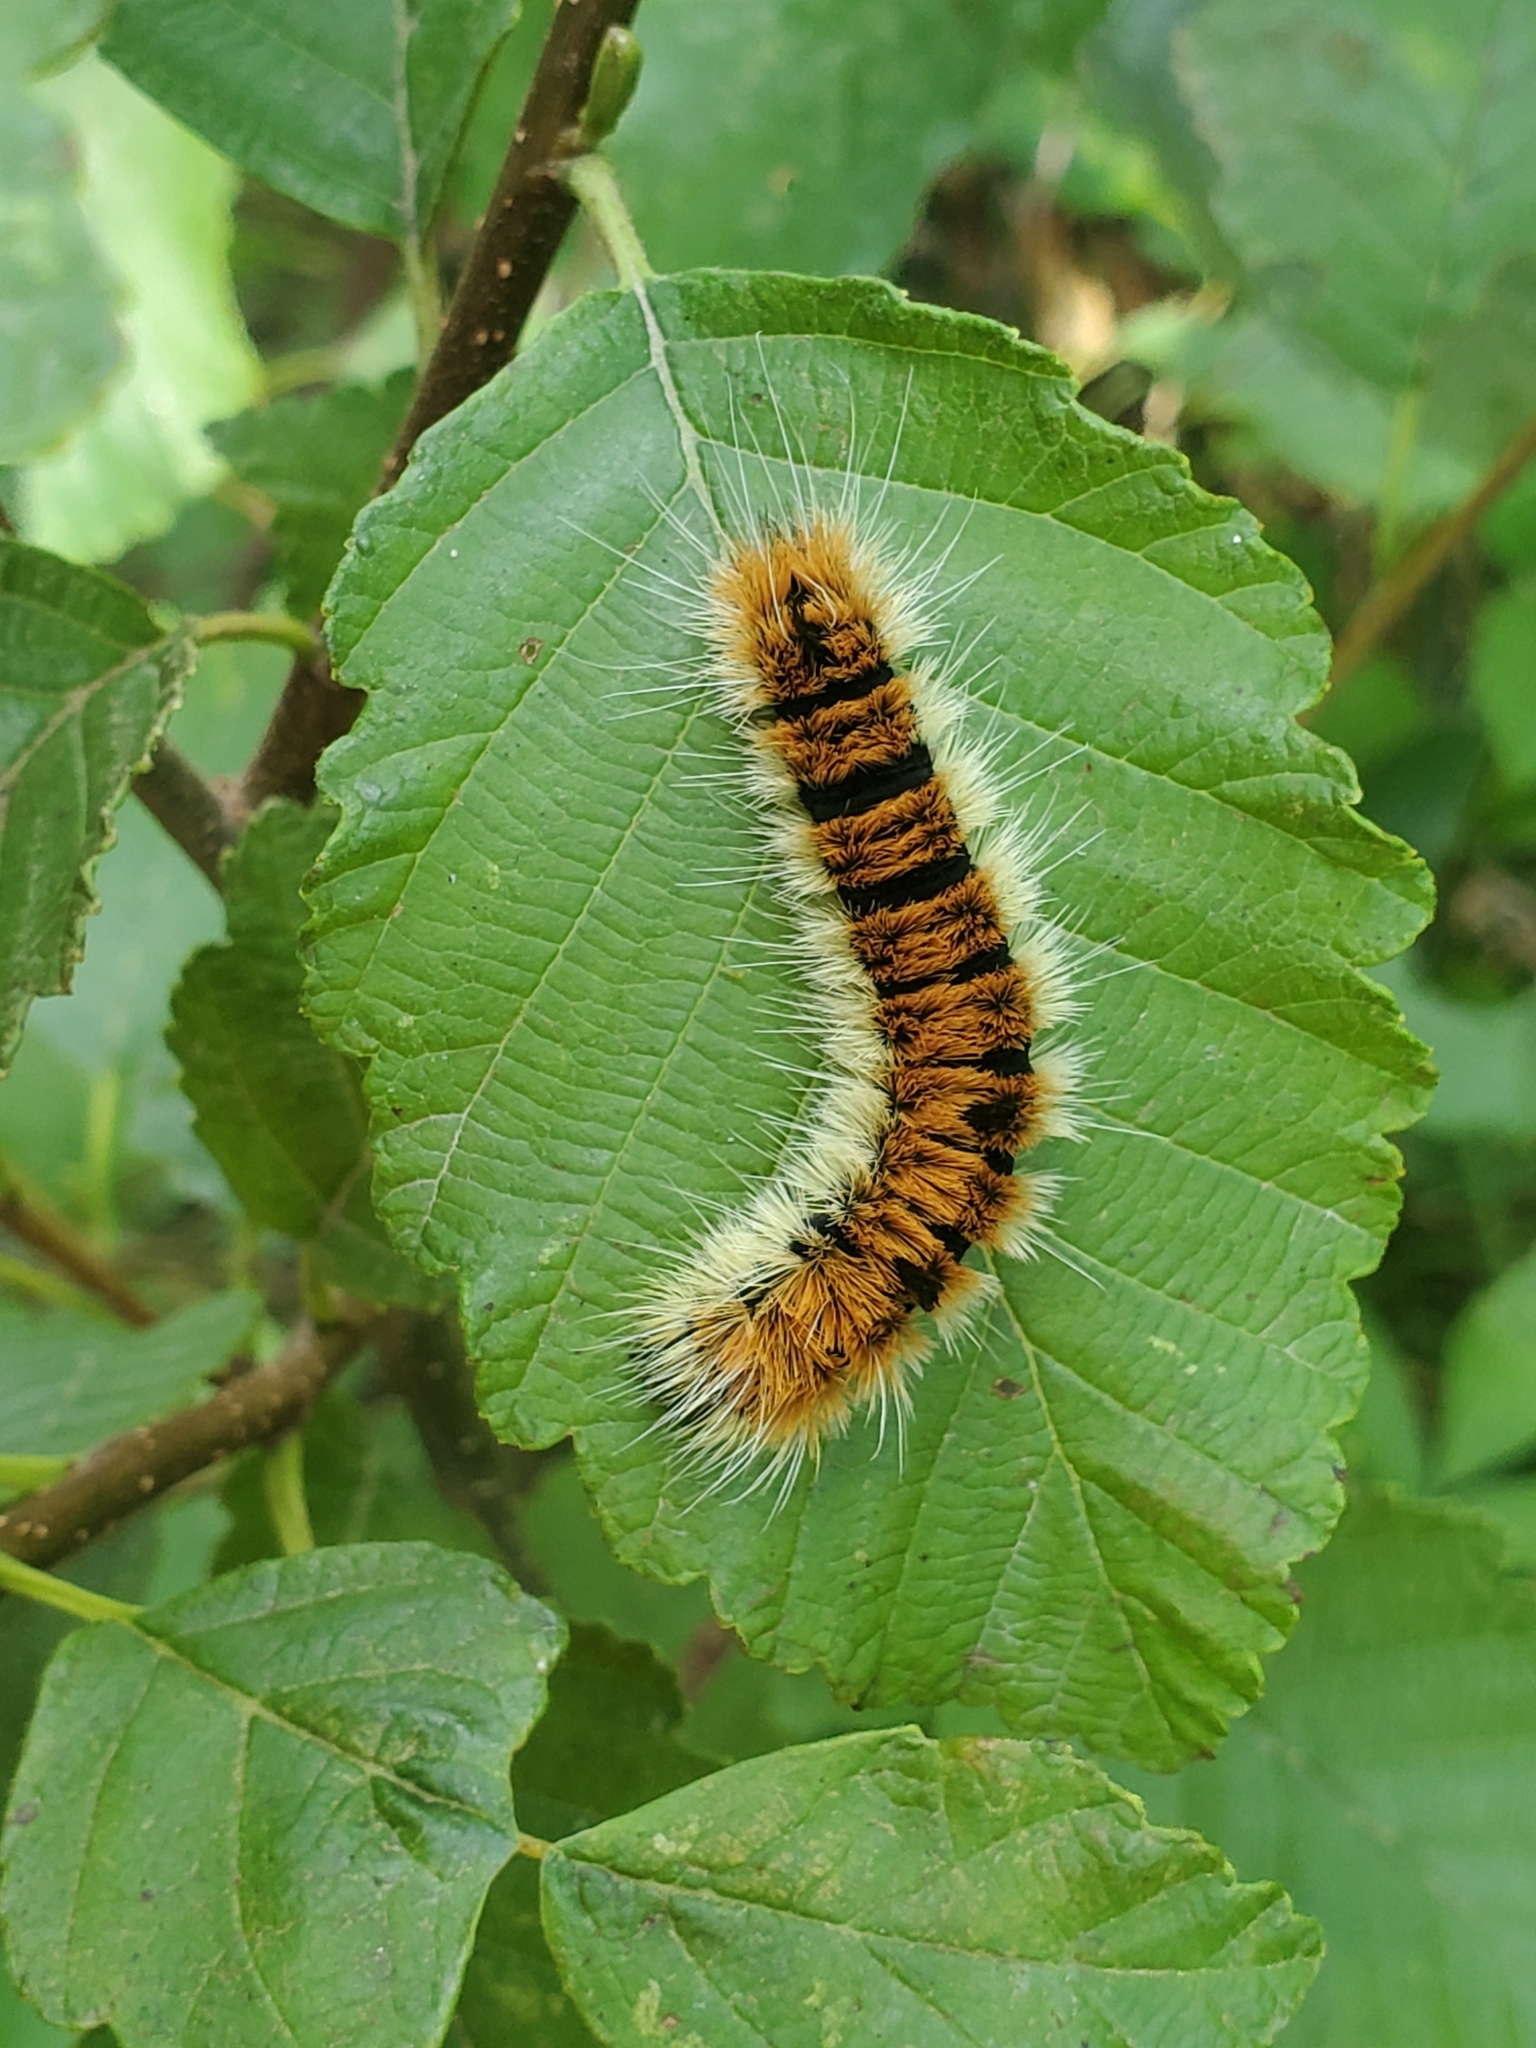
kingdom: Animalia
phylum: Arthropoda
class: Insecta
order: Lepidoptera
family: Noctuidae
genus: Acronicta
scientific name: Acronicta insita
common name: Large gray dagger
